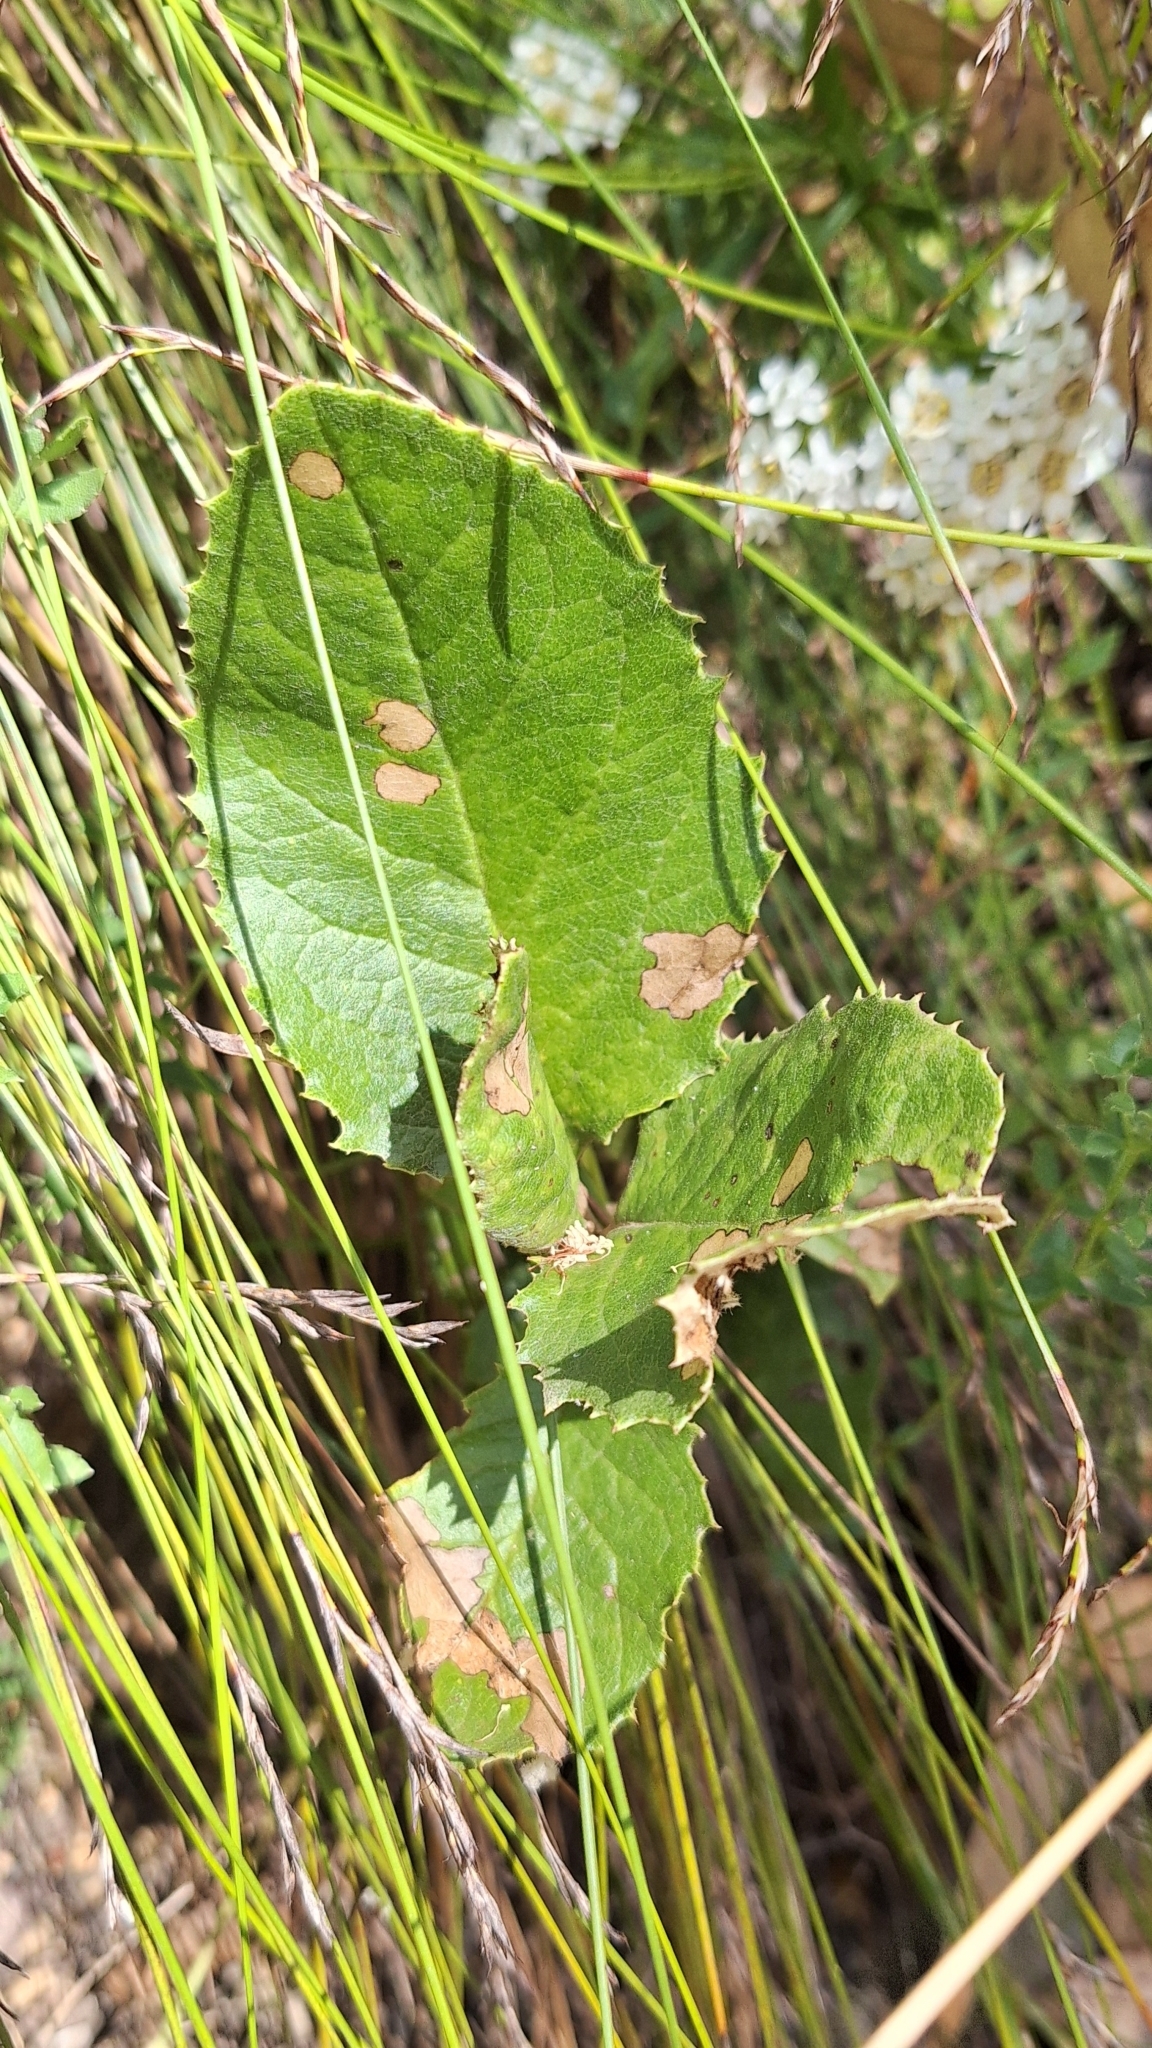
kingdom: Plantae
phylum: Tracheophyta
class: Magnoliopsida
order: Asterales
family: Asteraceae
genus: Olearia
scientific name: Olearia grandiflora
